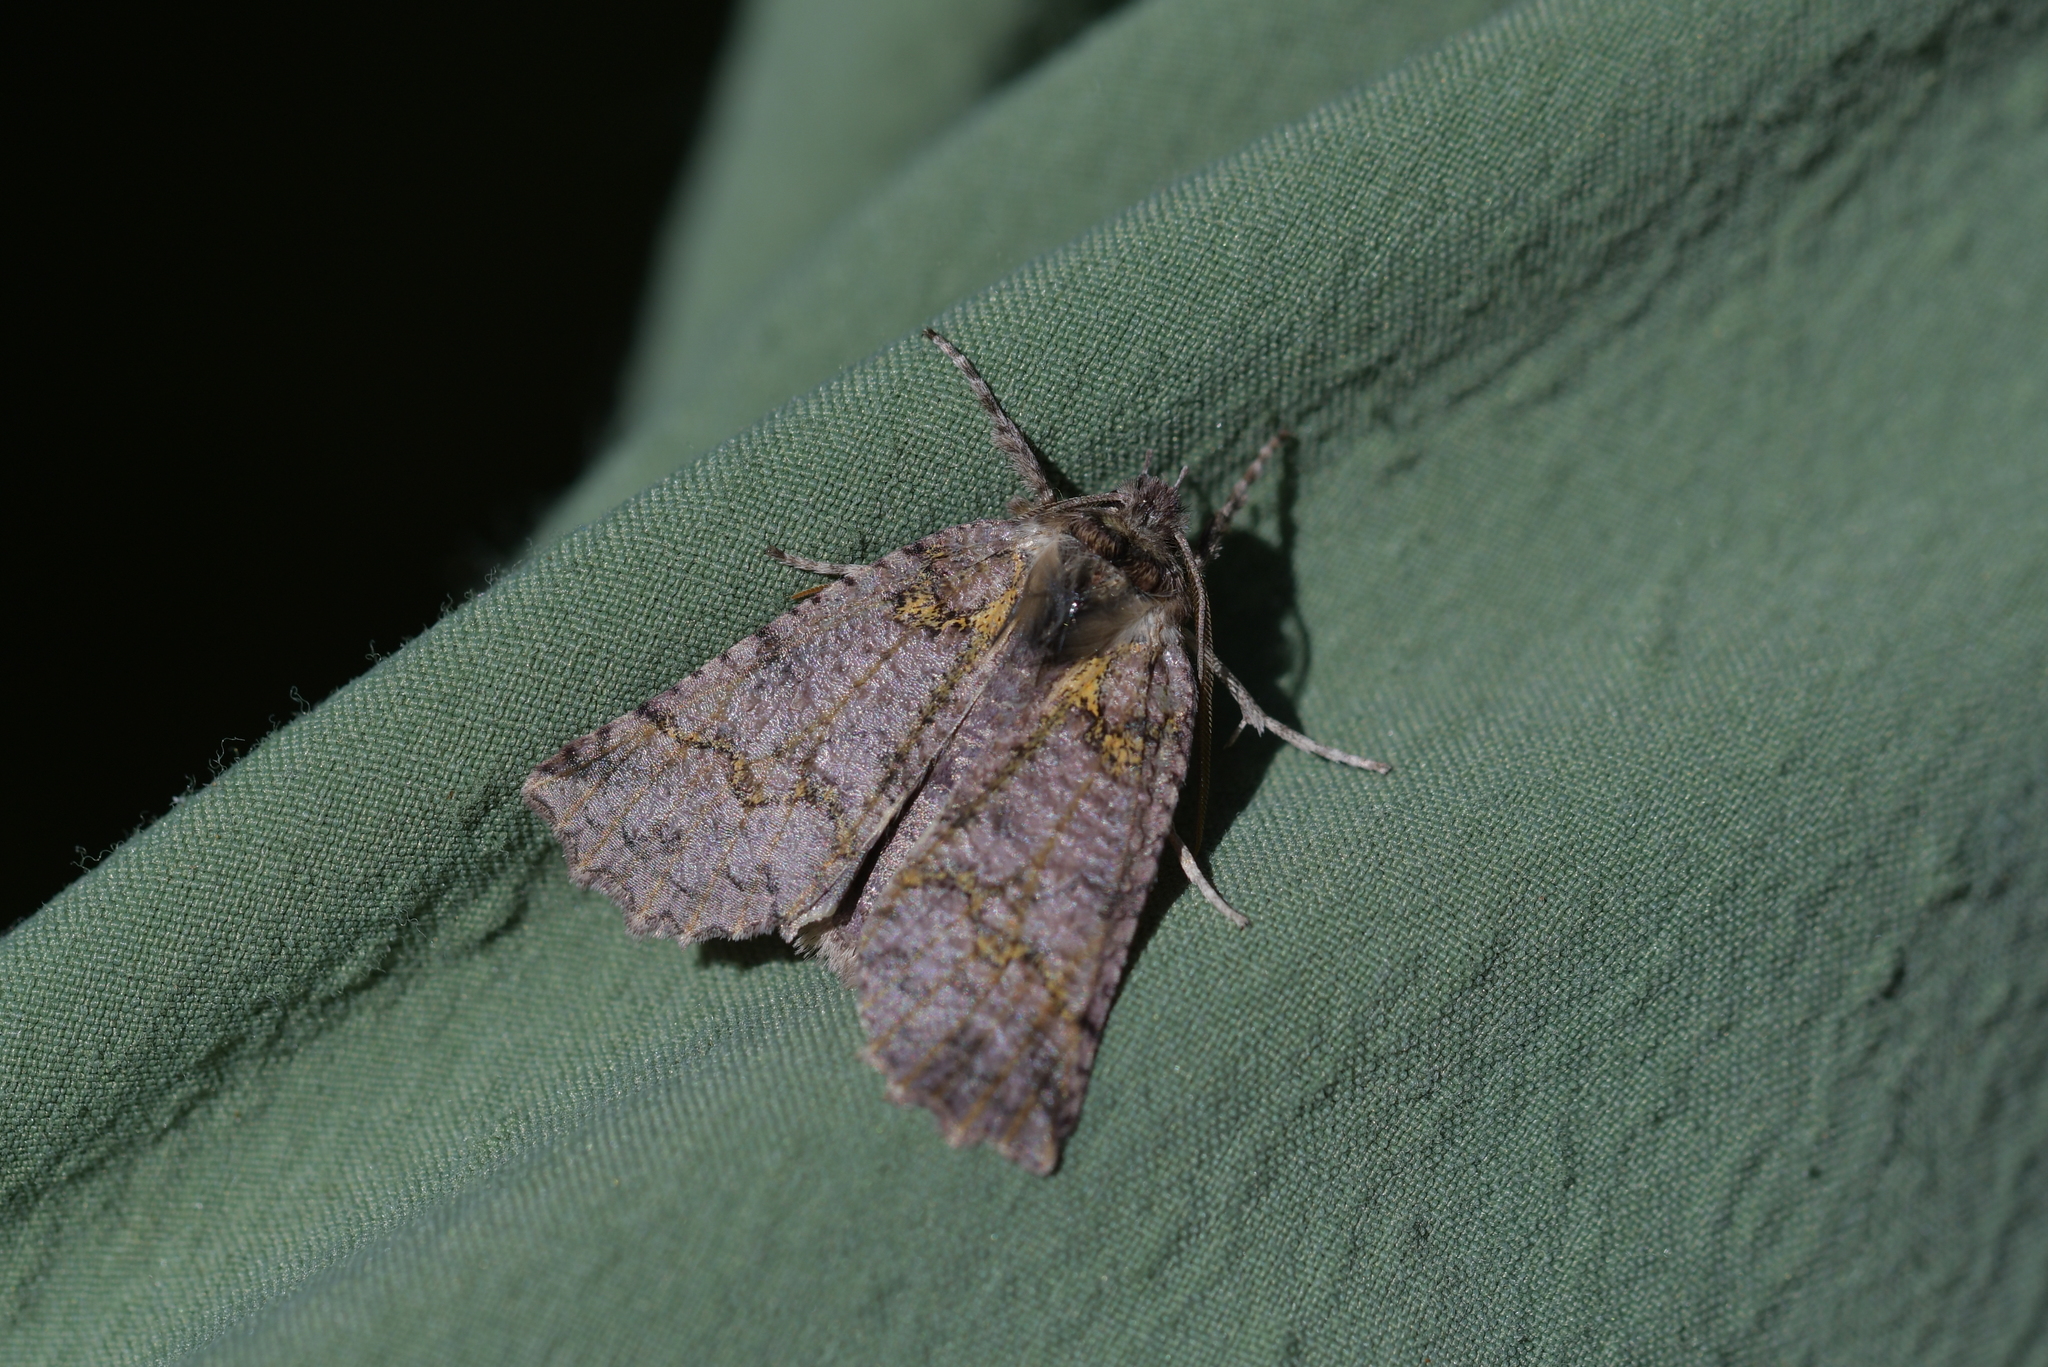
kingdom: Animalia
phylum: Arthropoda
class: Insecta
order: Lepidoptera
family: Geometridae
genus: Declana
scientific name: Declana floccosa
